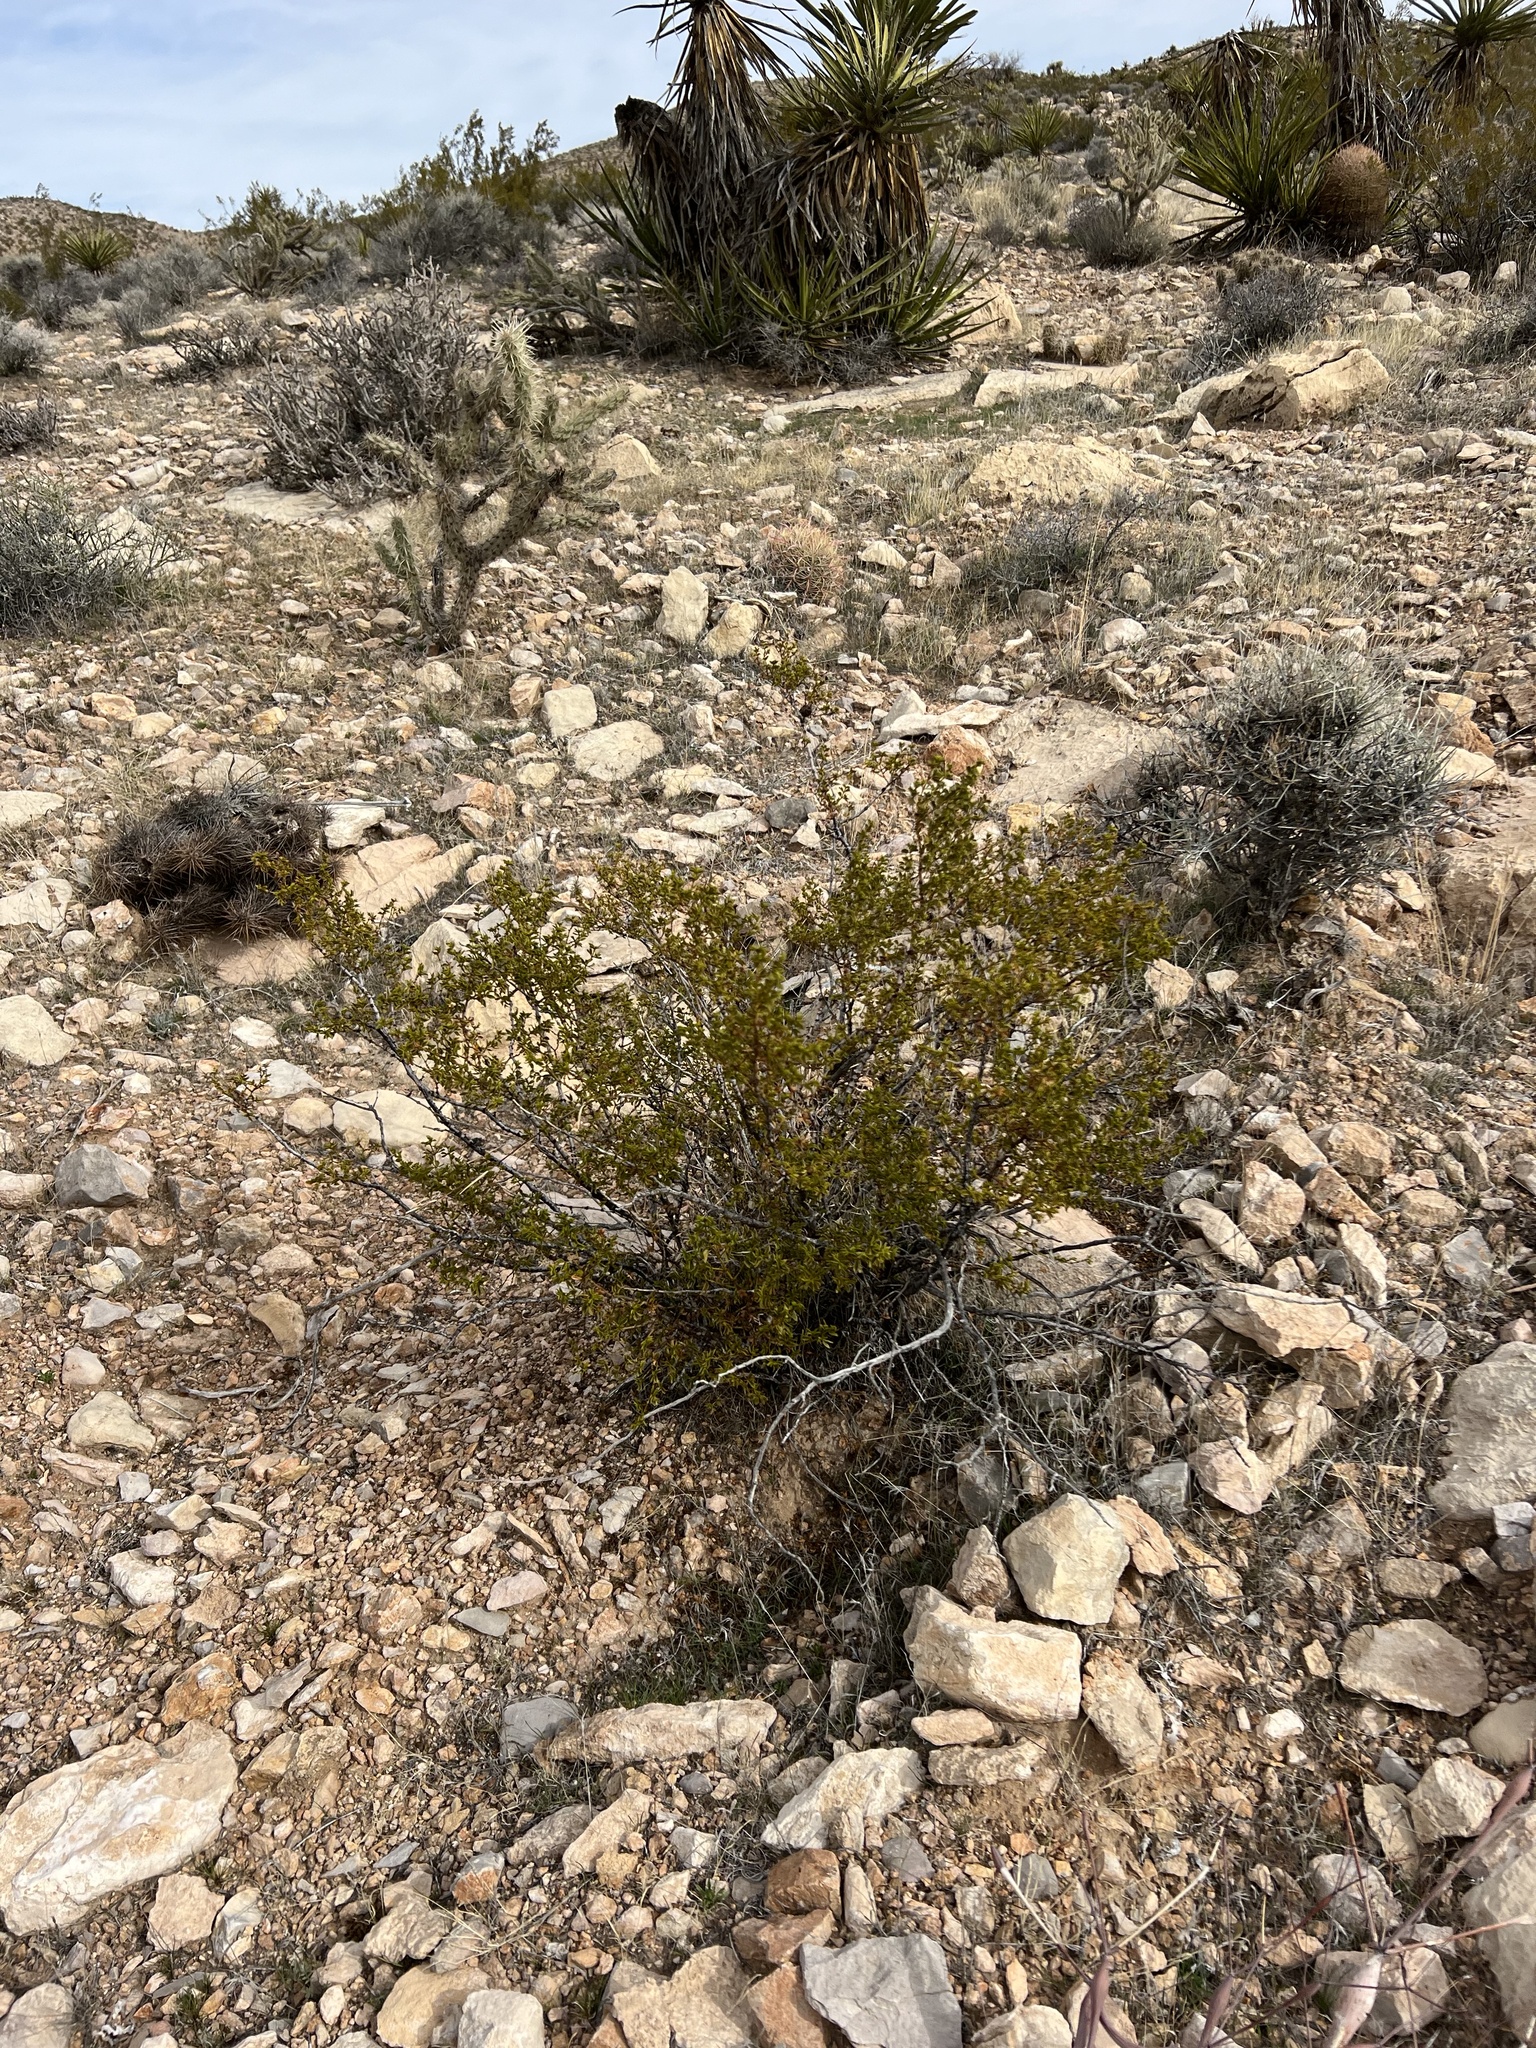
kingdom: Plantae
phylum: Tracheophyta
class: Magnoliopsida
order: Zygophyllales
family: Zygophyllaceae
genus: Larrea
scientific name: Larrea tridentata
